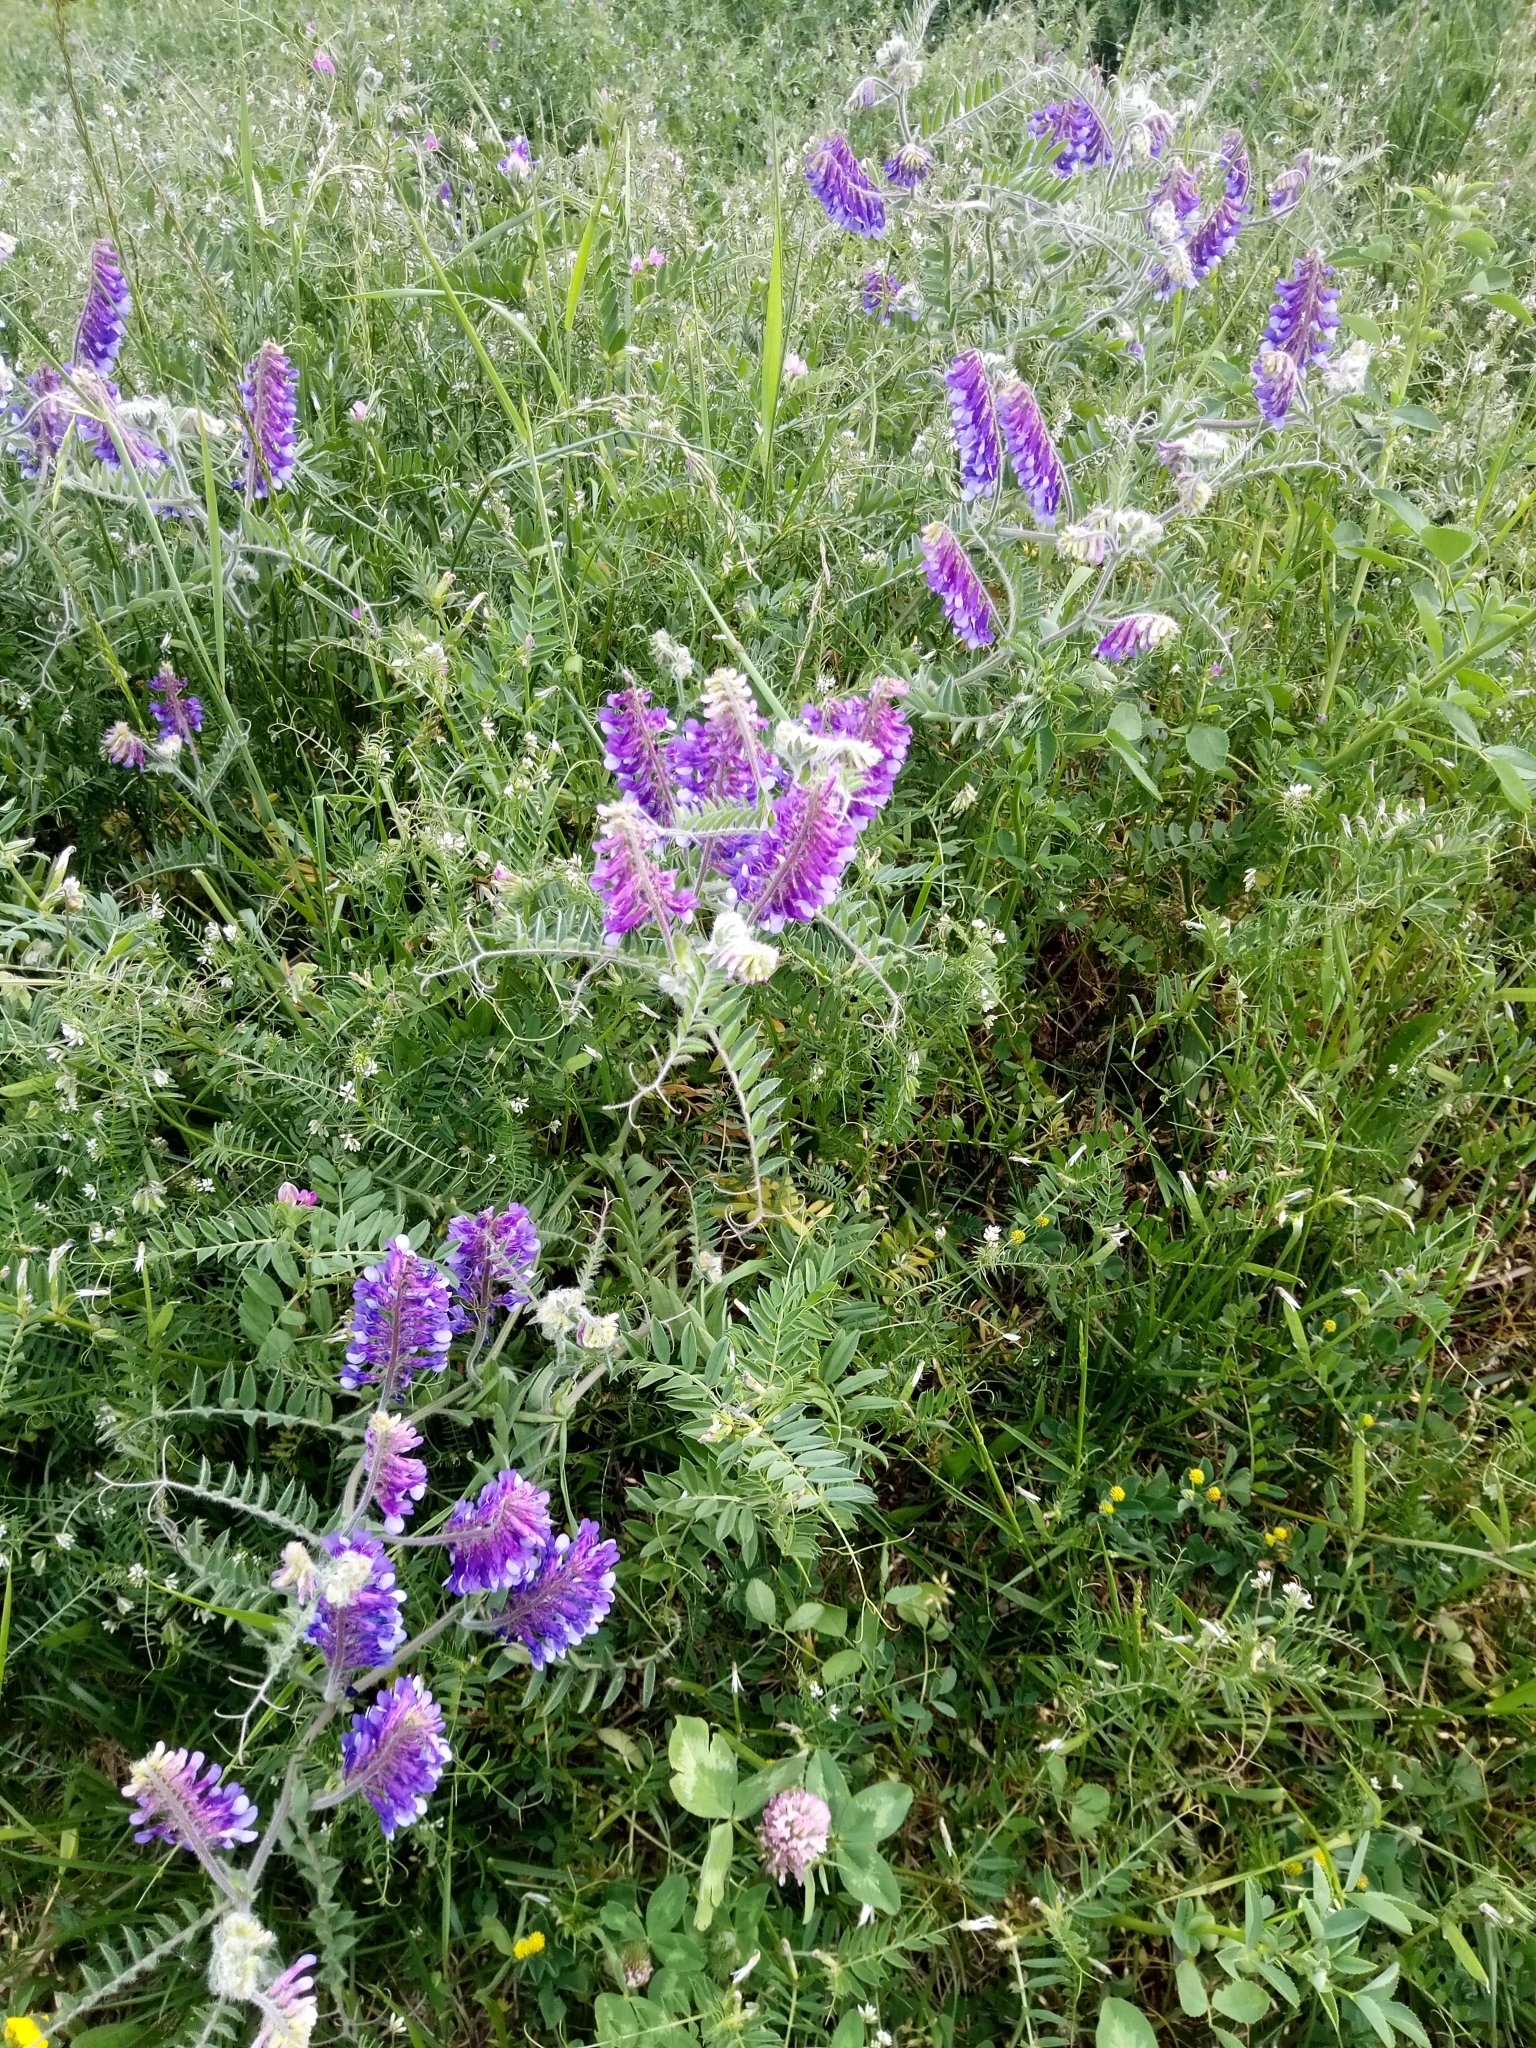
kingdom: Plantae
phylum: Tracheophyta
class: Magnoliopsida
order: Fabales
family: Fabaceae
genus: Vicia
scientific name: Vicia villosa
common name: Fodder vetch
